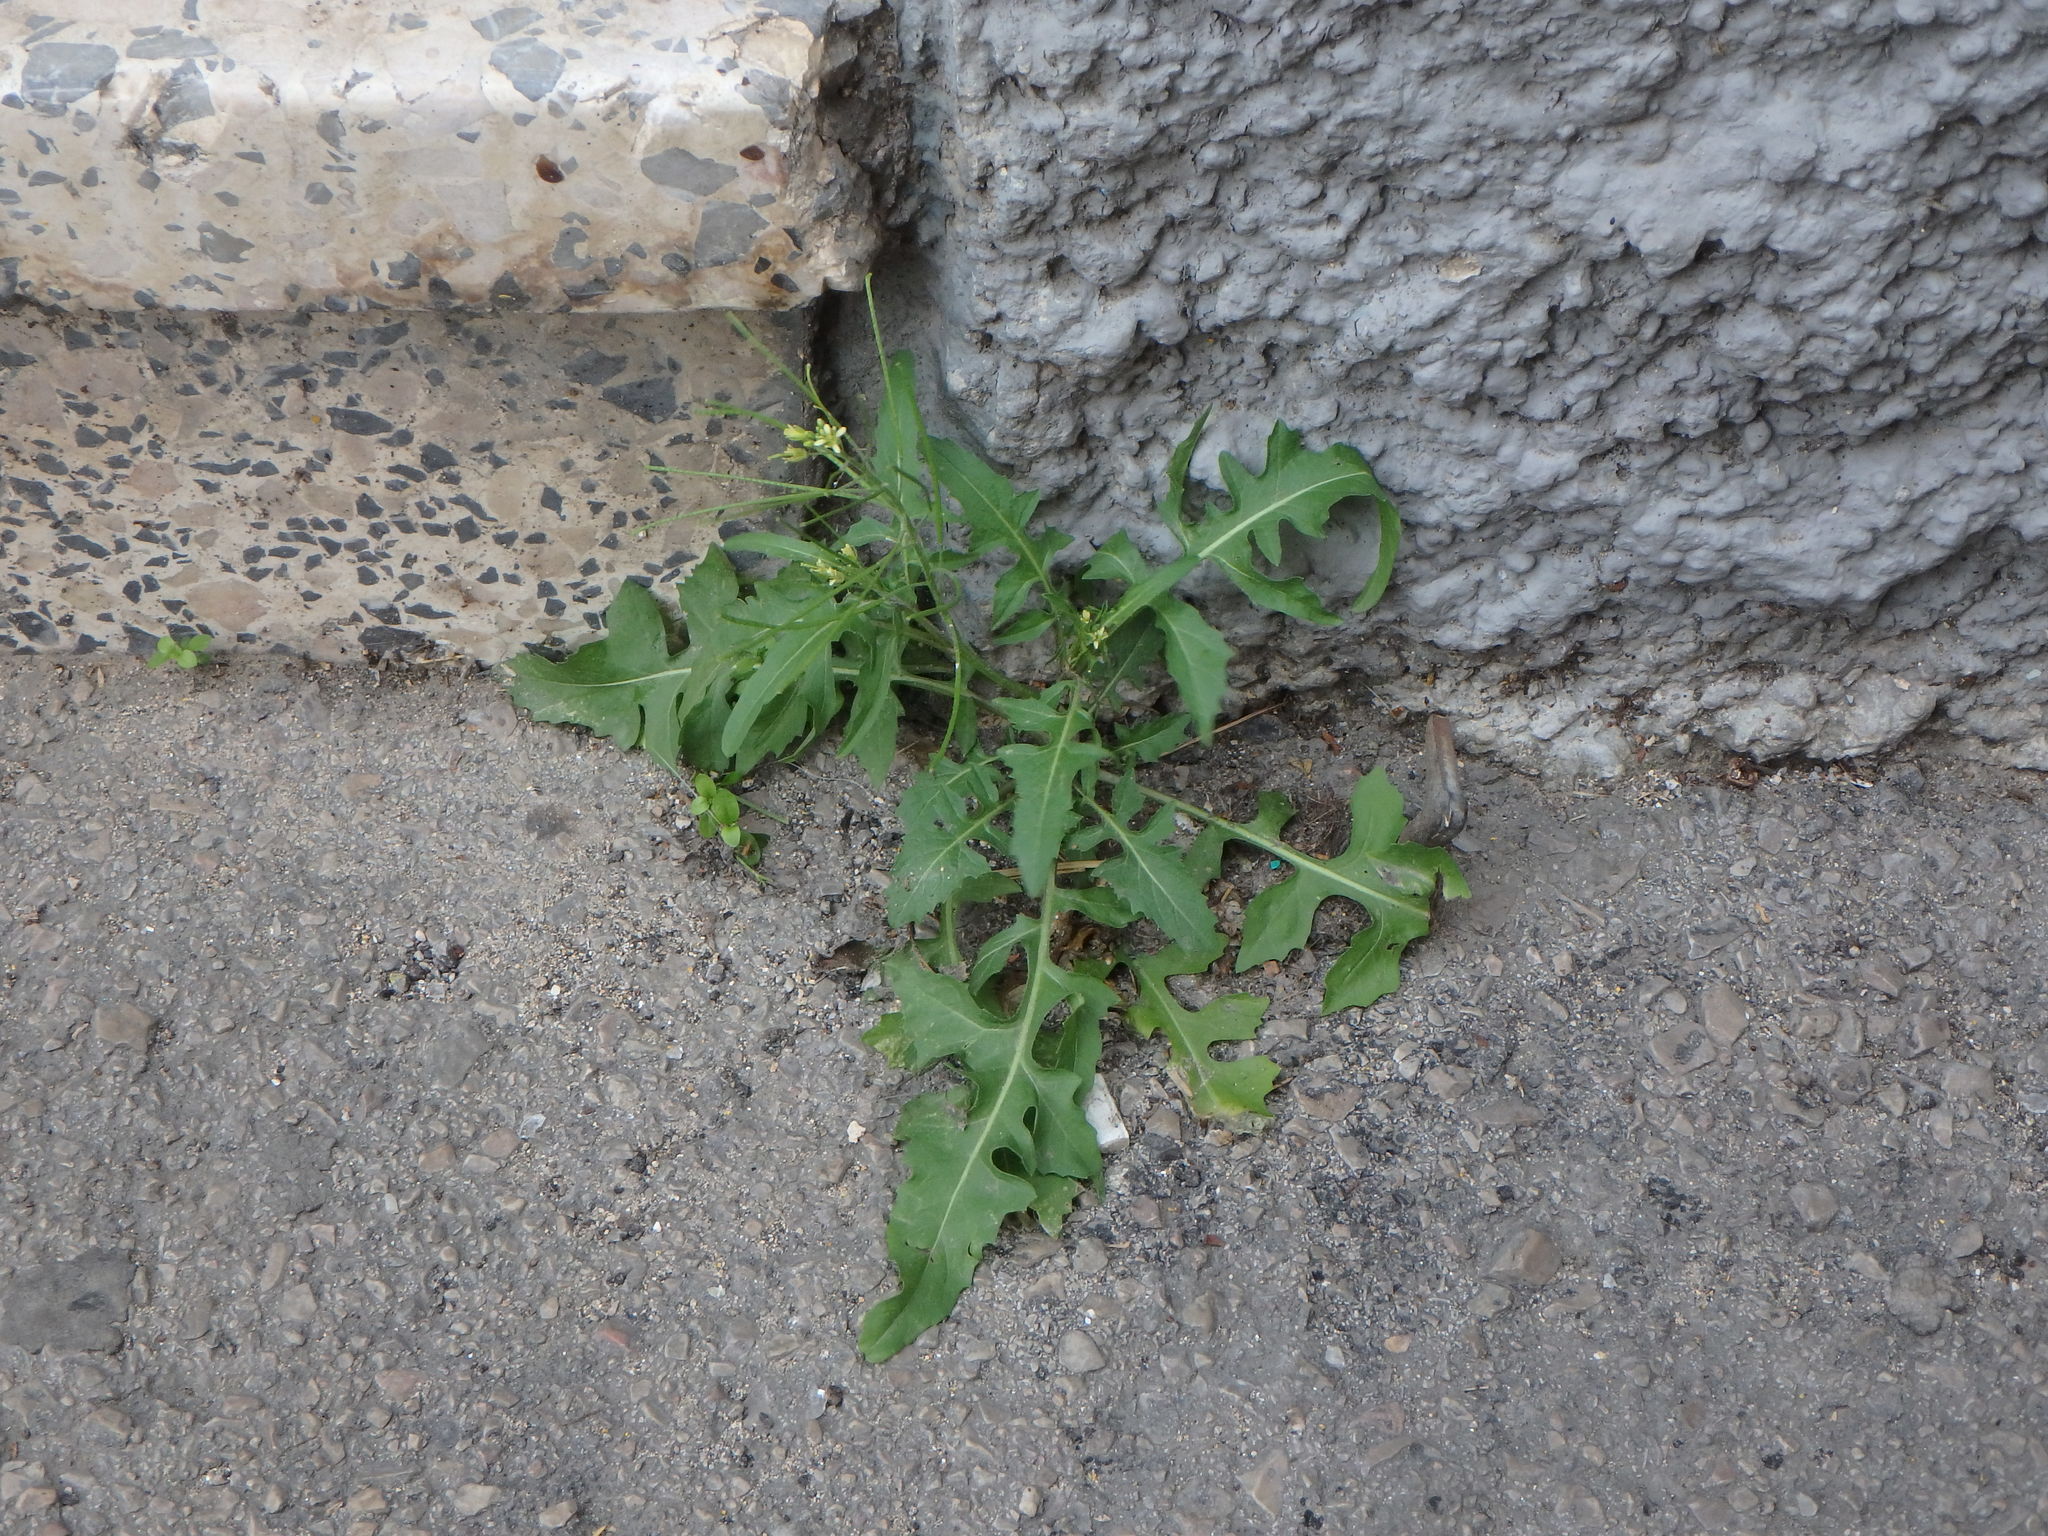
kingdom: Plantae
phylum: Tracheophyta
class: Magnoliopsida
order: Brassicales
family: Brassicaceae
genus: Sisymbrium
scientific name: Sisymbrium irio
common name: London rocket
